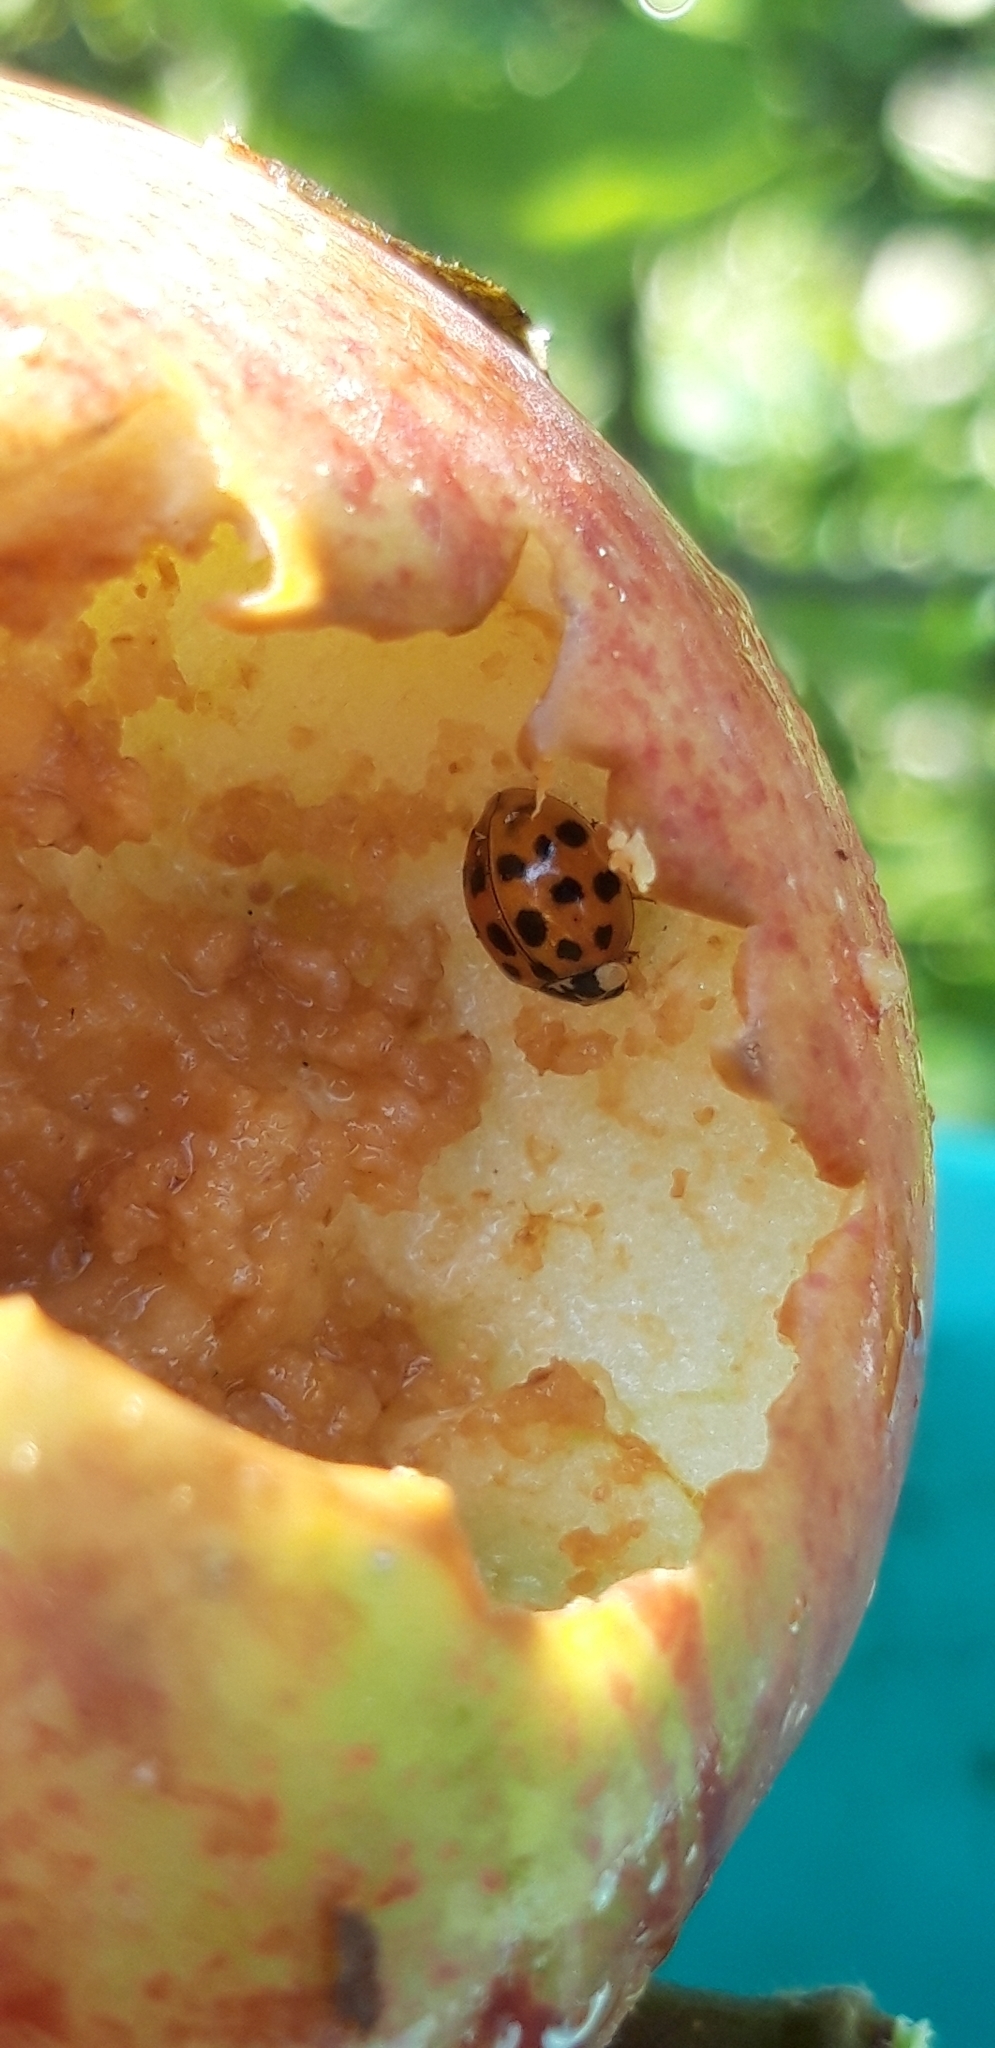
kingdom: Animalia
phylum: Arthropoda
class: Insecta
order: Coleoptera
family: Coccinellidae
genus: Harmonia
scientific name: Harmonia axyridis
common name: Harlequin ladybird
